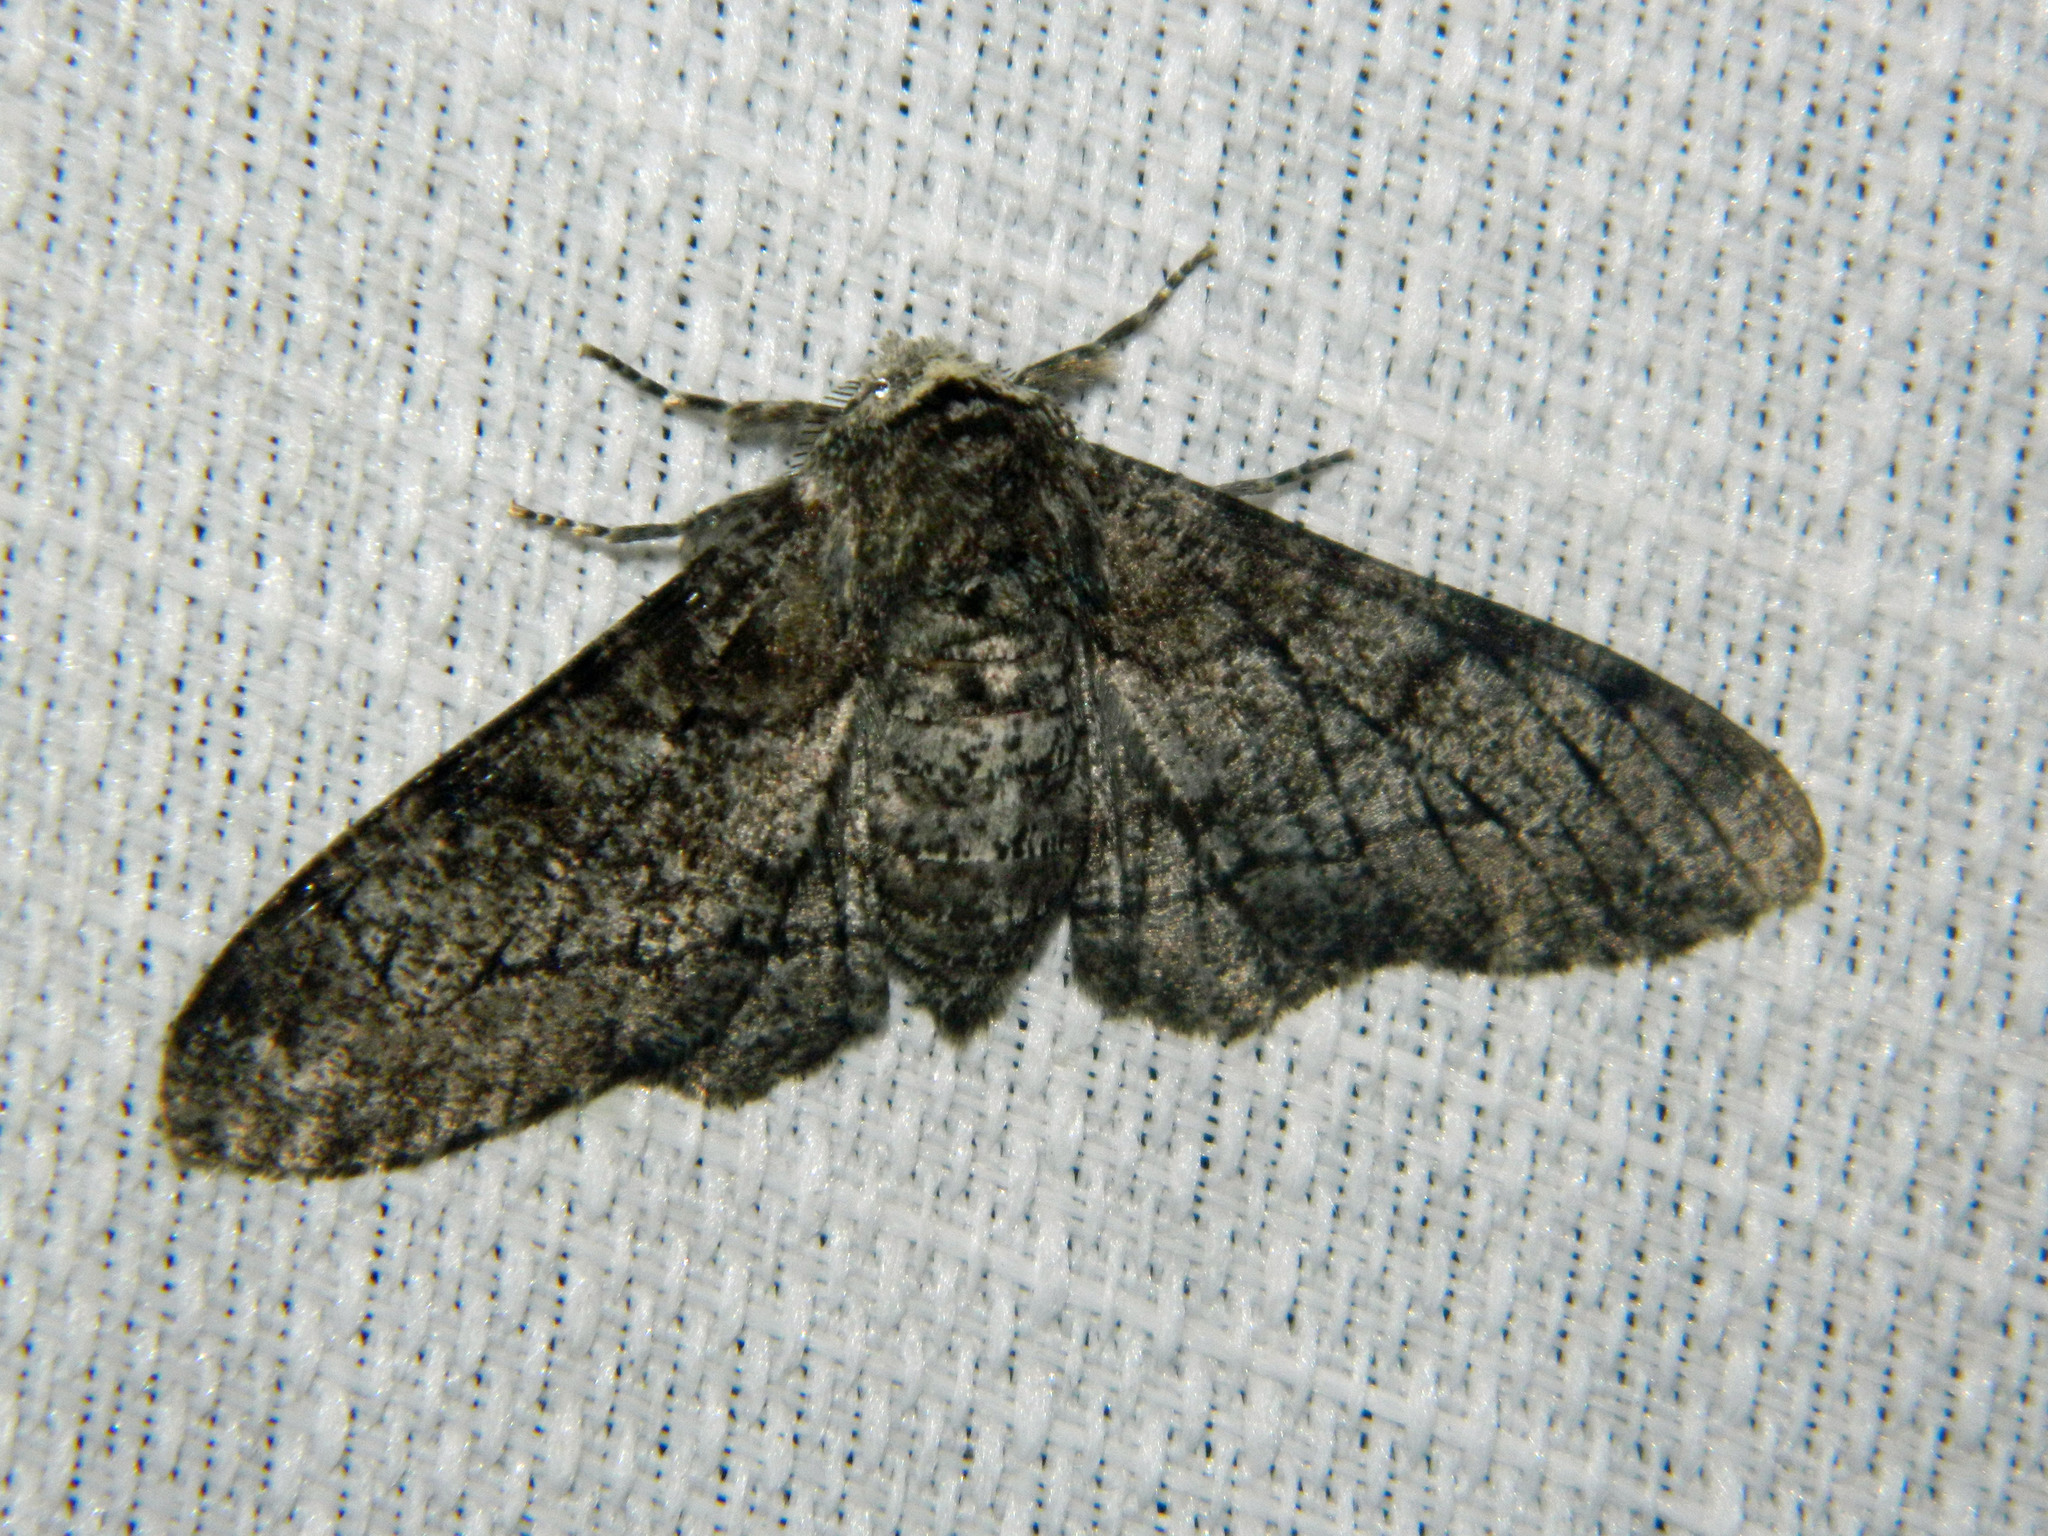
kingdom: Animalia
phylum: Arthropoda
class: Insecta
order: Lepidoptera
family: Geometridae
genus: Biston
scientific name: Biston betularia
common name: Peppered moth
